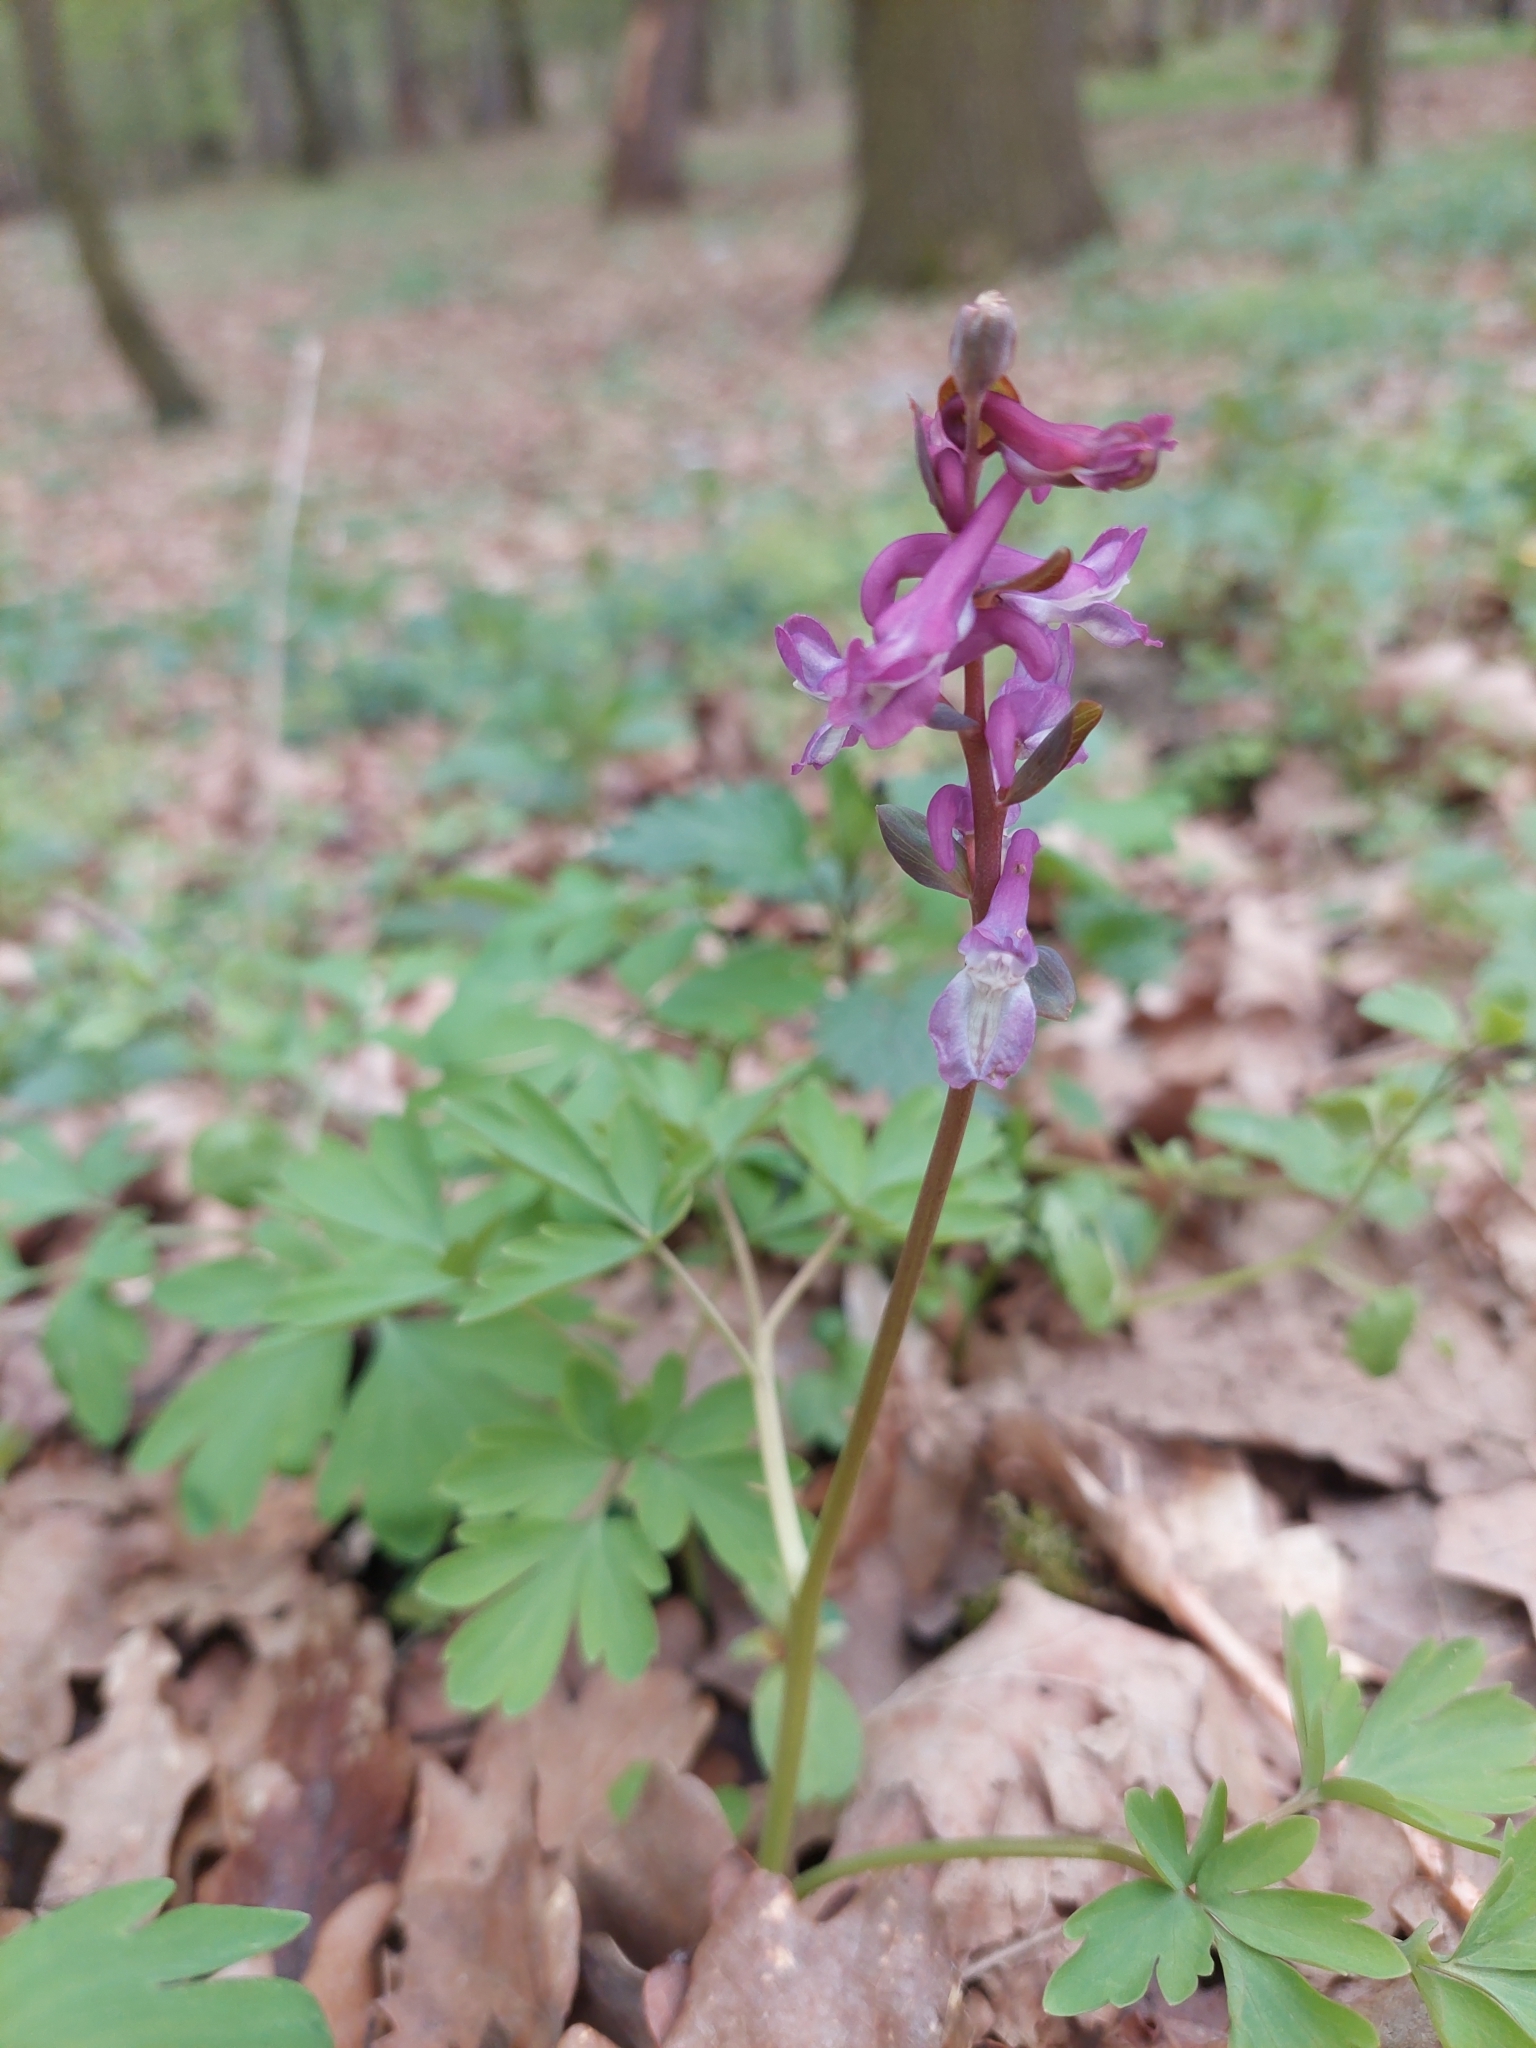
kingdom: Plantae
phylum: Tracheophyta
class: Magnoliopsida
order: Ranunculales
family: Papaveraceae
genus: Corydalis
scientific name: Corydalis cava
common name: Hollowroot
